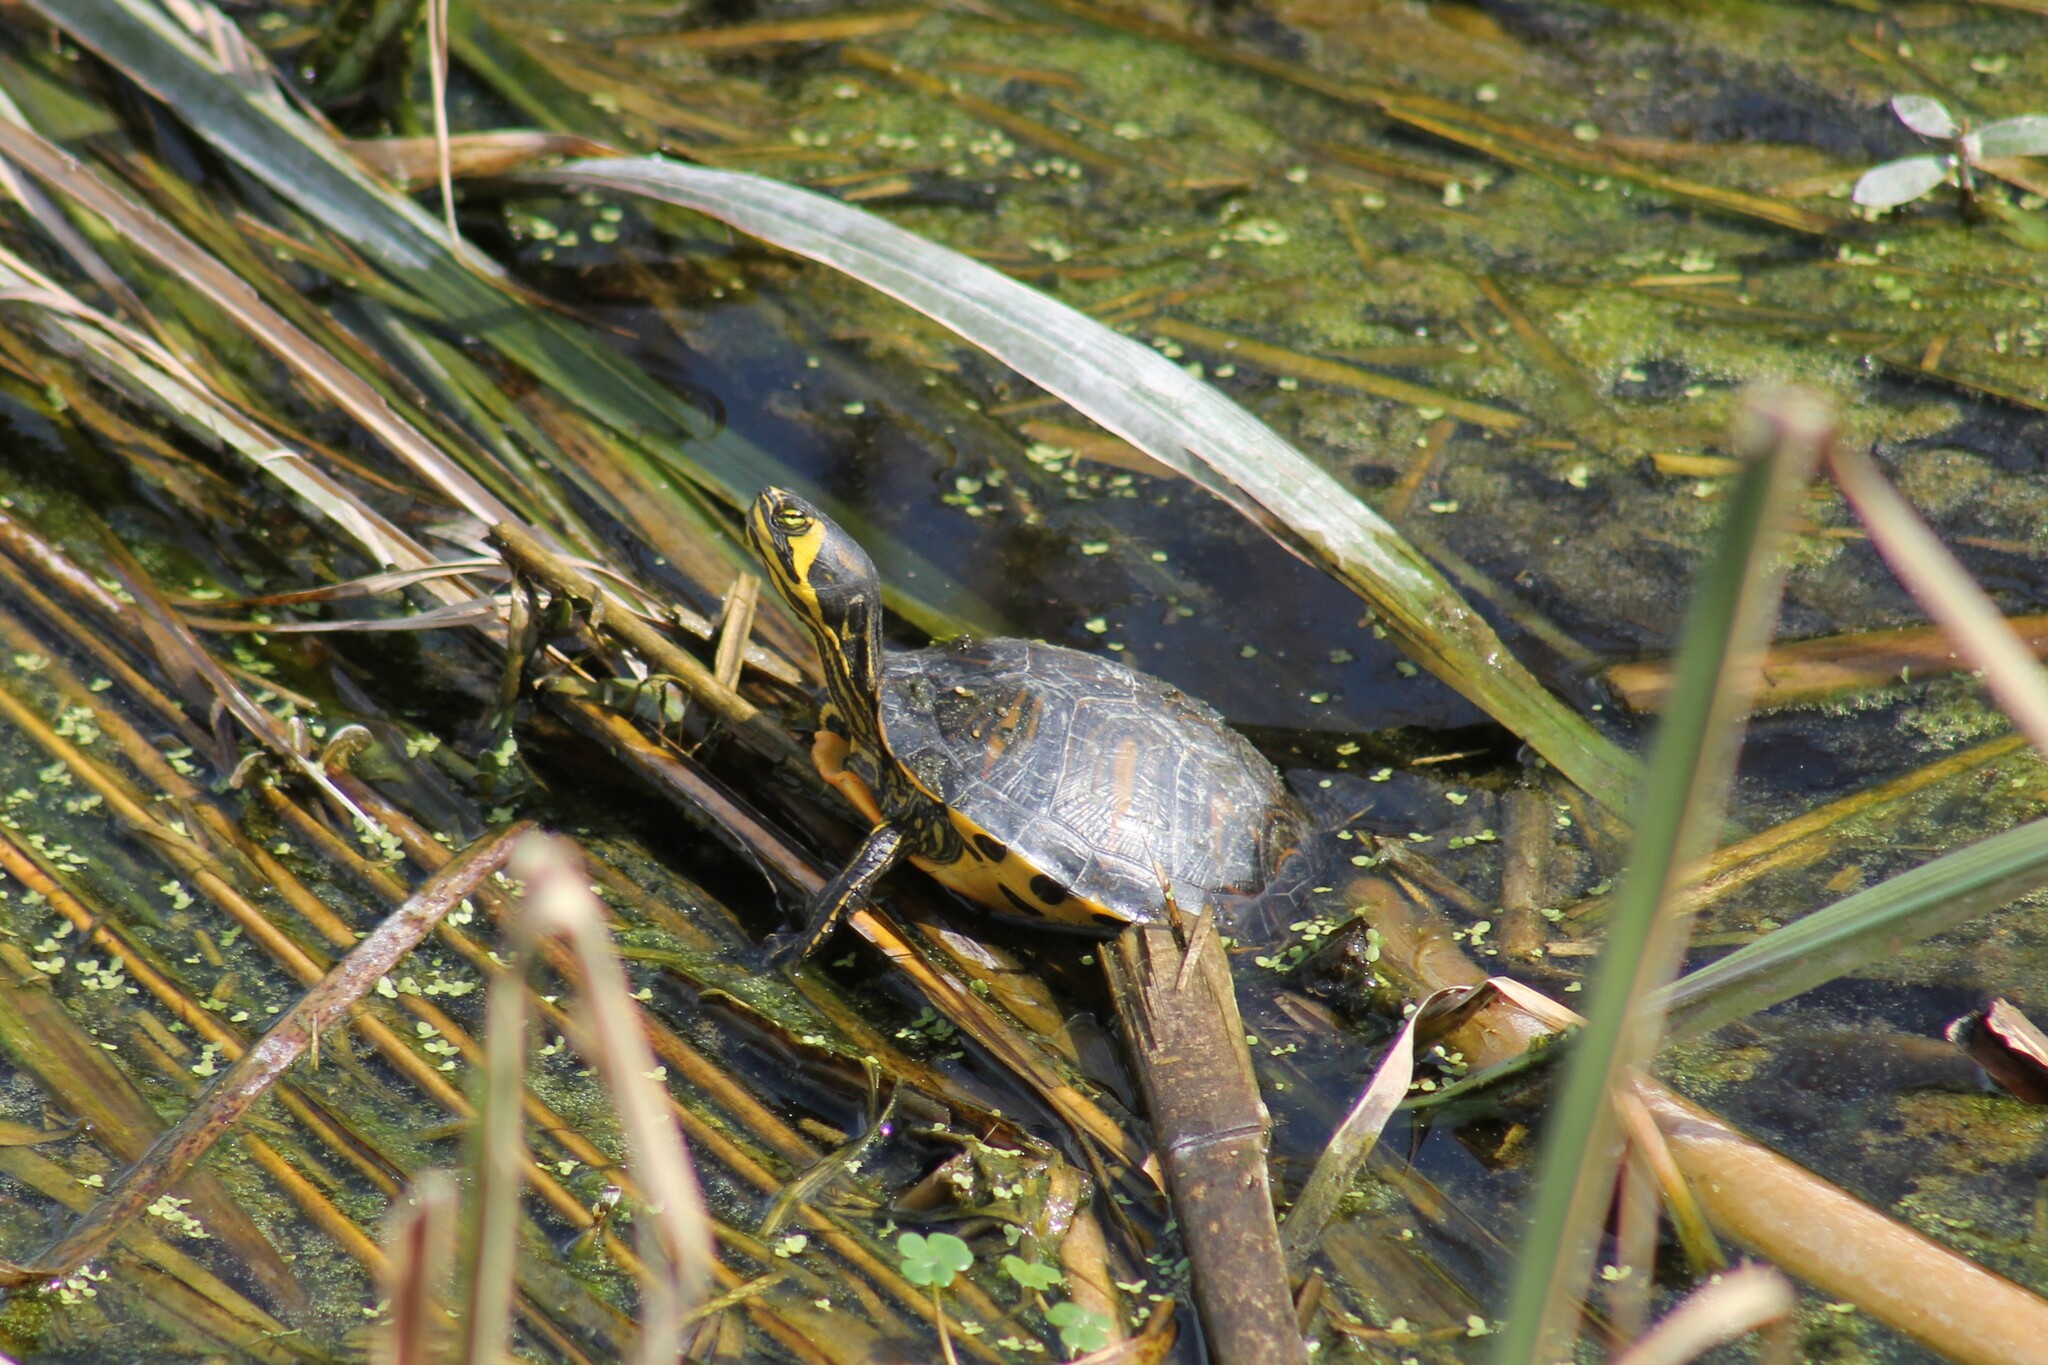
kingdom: Animalia
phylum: Chordata
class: Testudines
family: Emydidae
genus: Trachemys
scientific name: Trachemys scripta
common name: Slider
